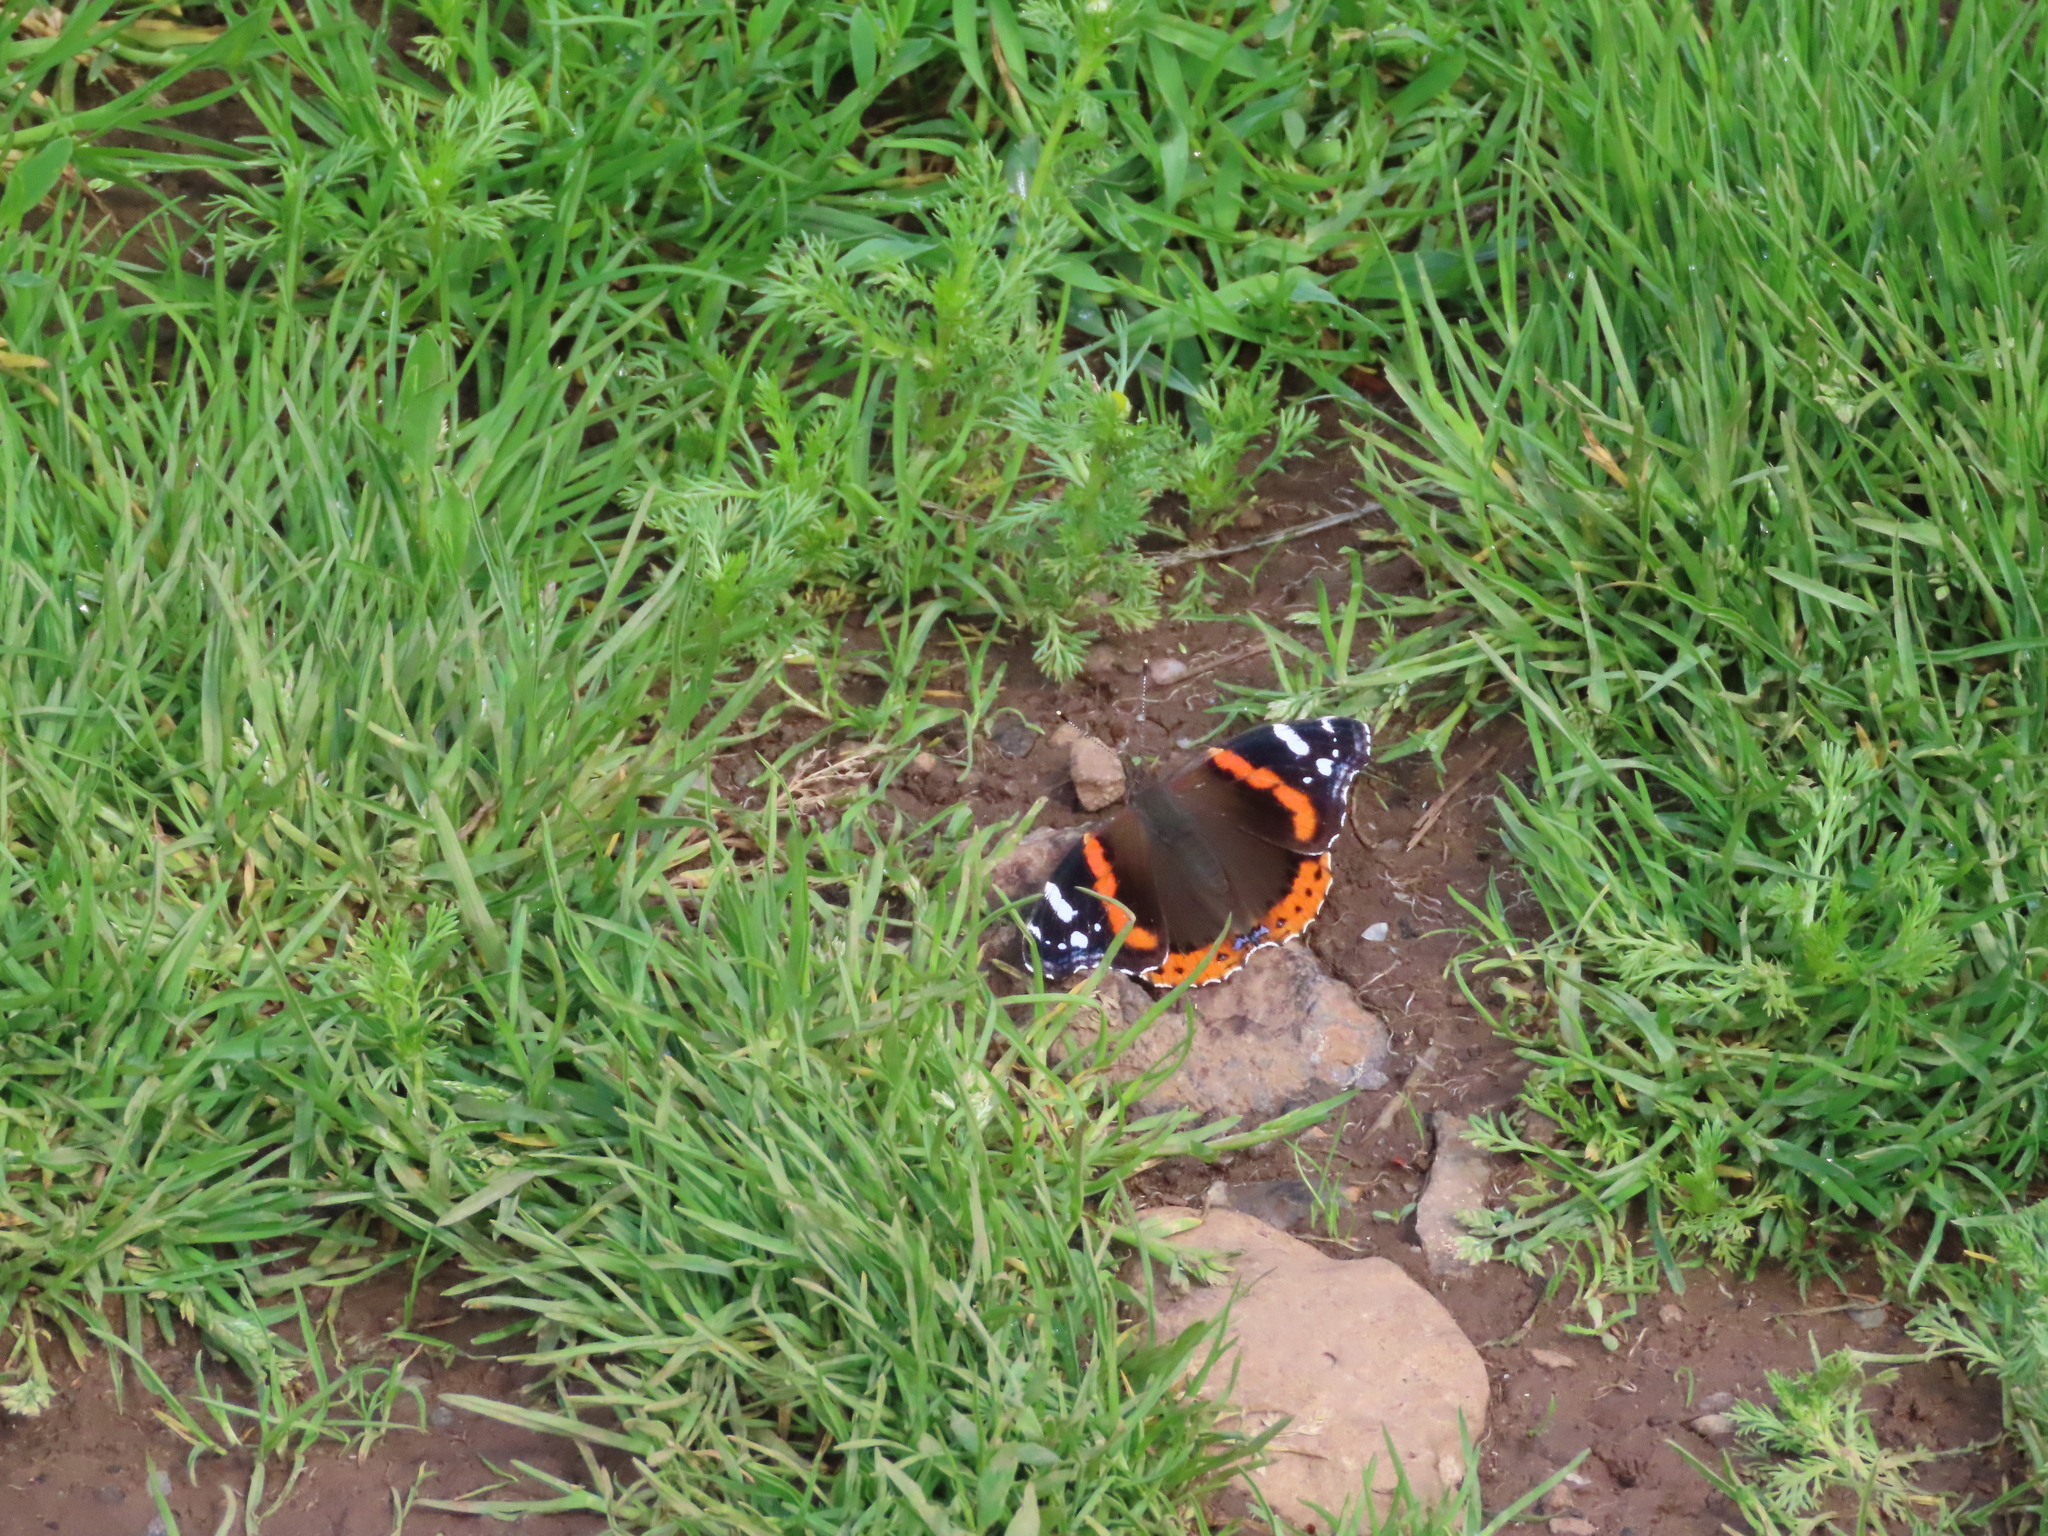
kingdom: Animalia
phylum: Arthropoda
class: Insecta
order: Lepidoptera
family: Nymphalidae
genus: Vanessa
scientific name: Vanessa atalanta
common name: Red admiral
